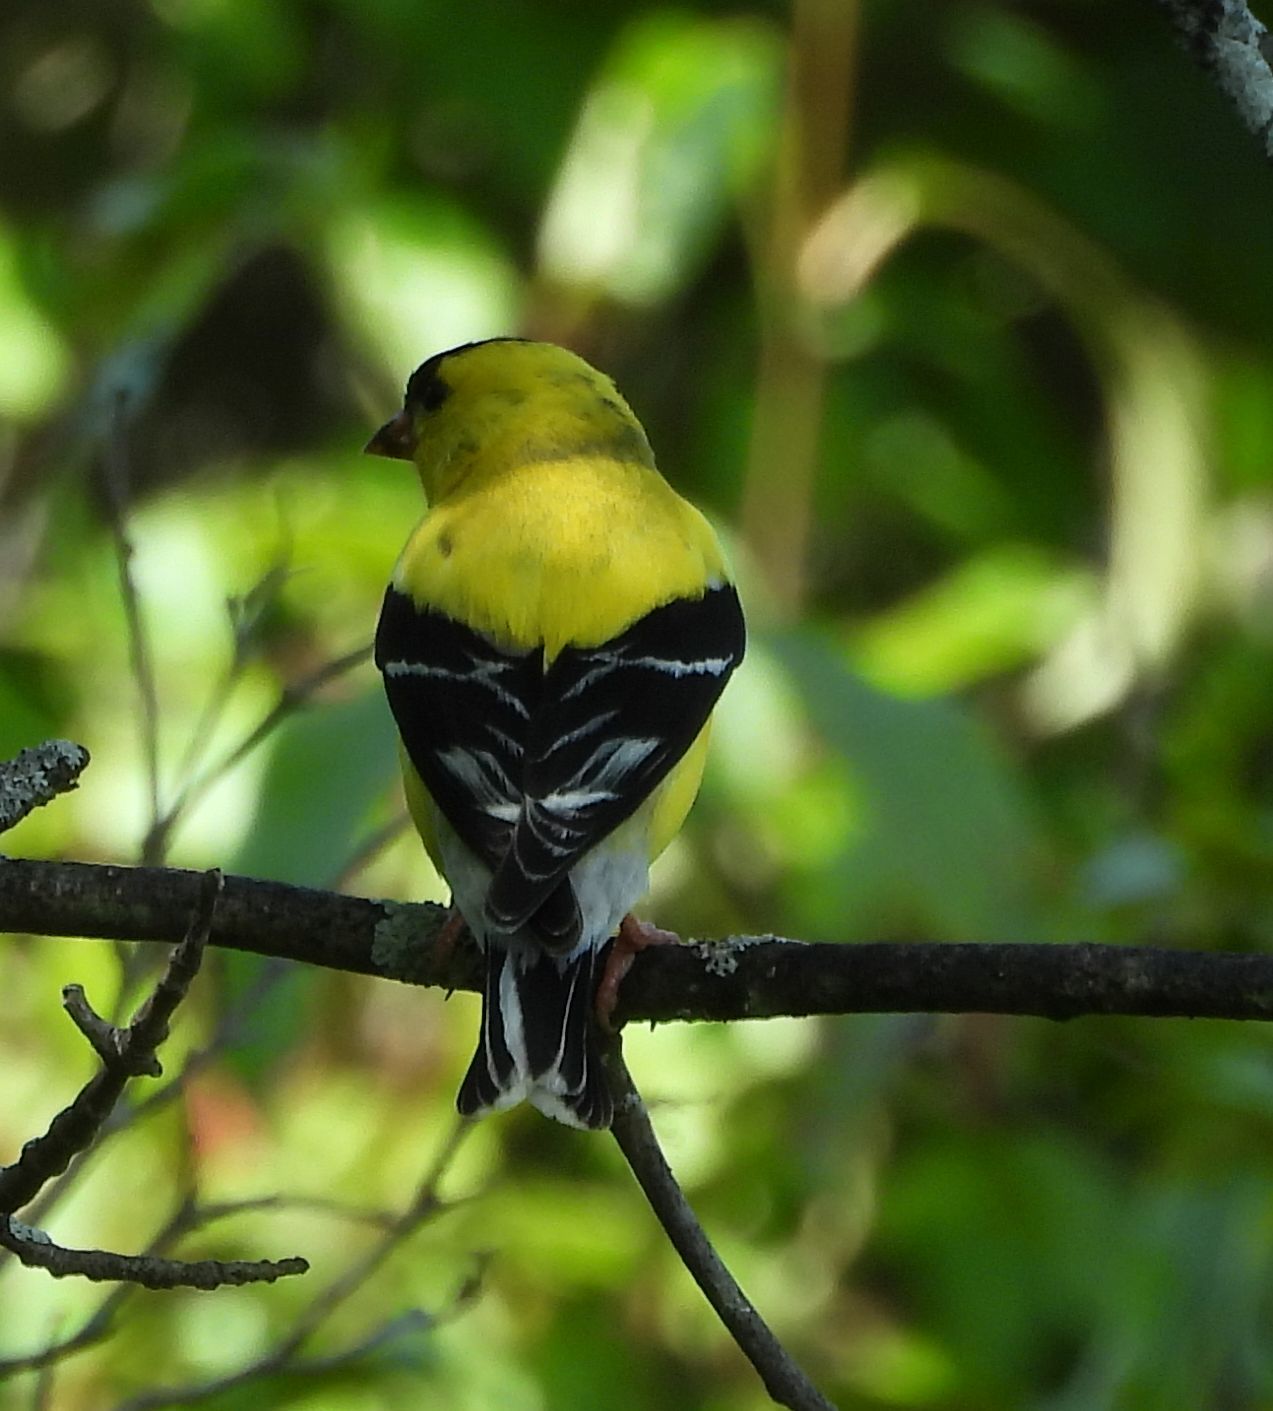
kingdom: Animalia
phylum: Chordata
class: Aves
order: Passeriformes
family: Fringillidae
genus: Spinus
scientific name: Spinus tristis
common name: American goldfinch
